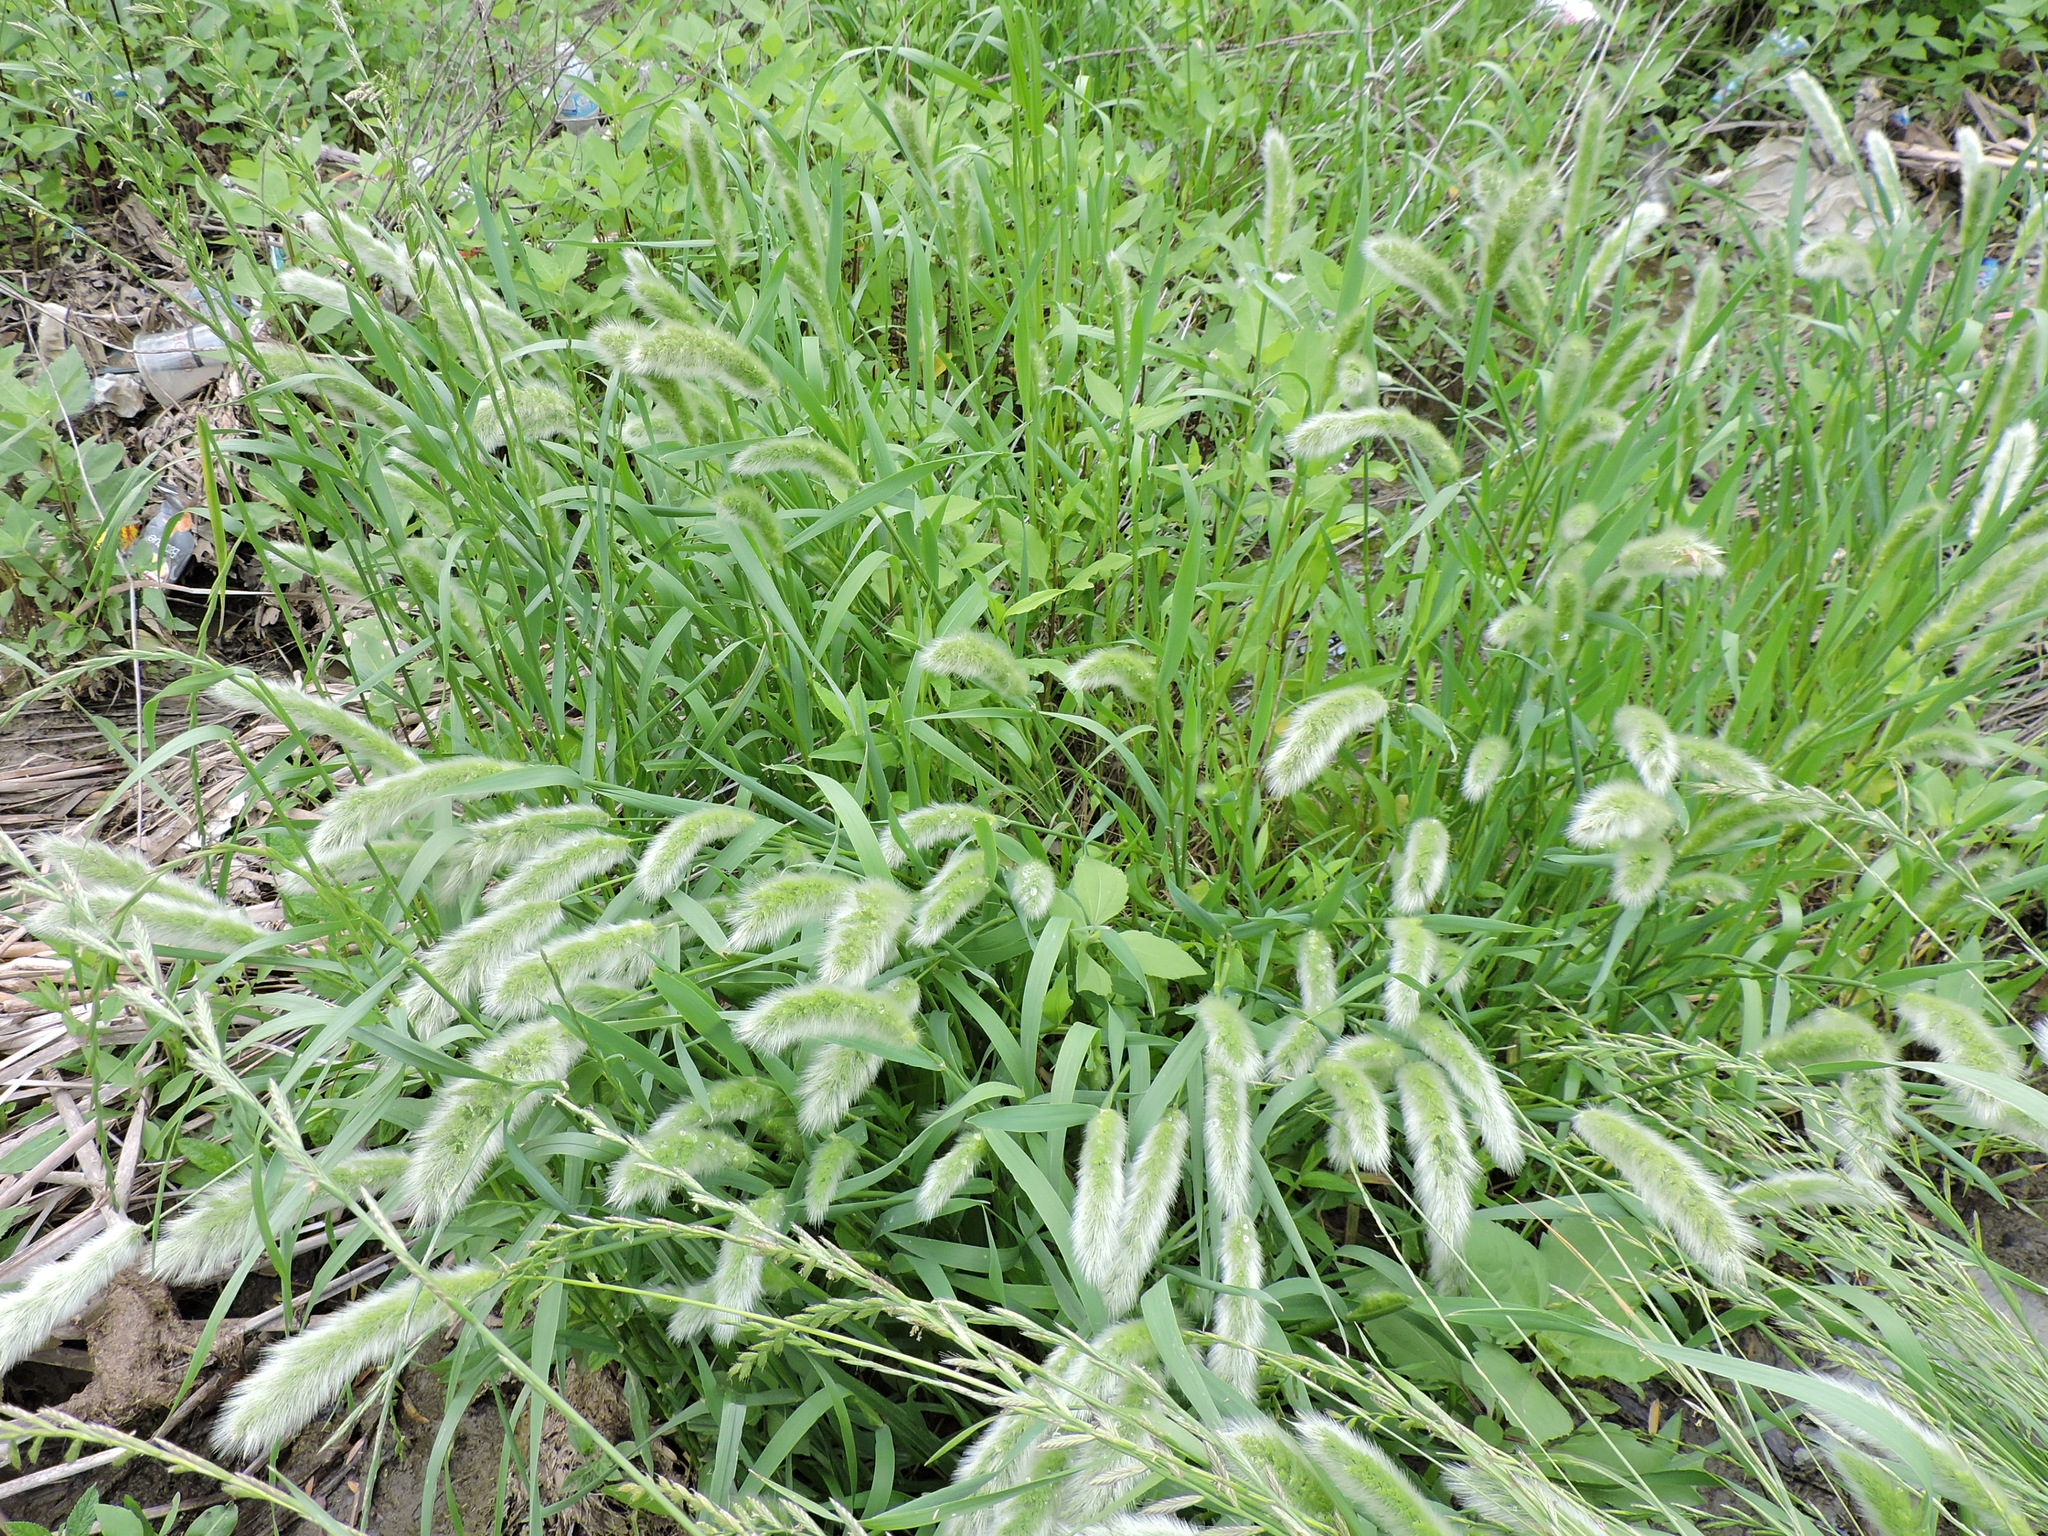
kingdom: Plantae
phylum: Tracheophyta
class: Liliopsida
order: Poales
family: Poaceae
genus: Polypogon
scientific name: Polypogon monspeliensis
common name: Annual rabbitsfoot grass
